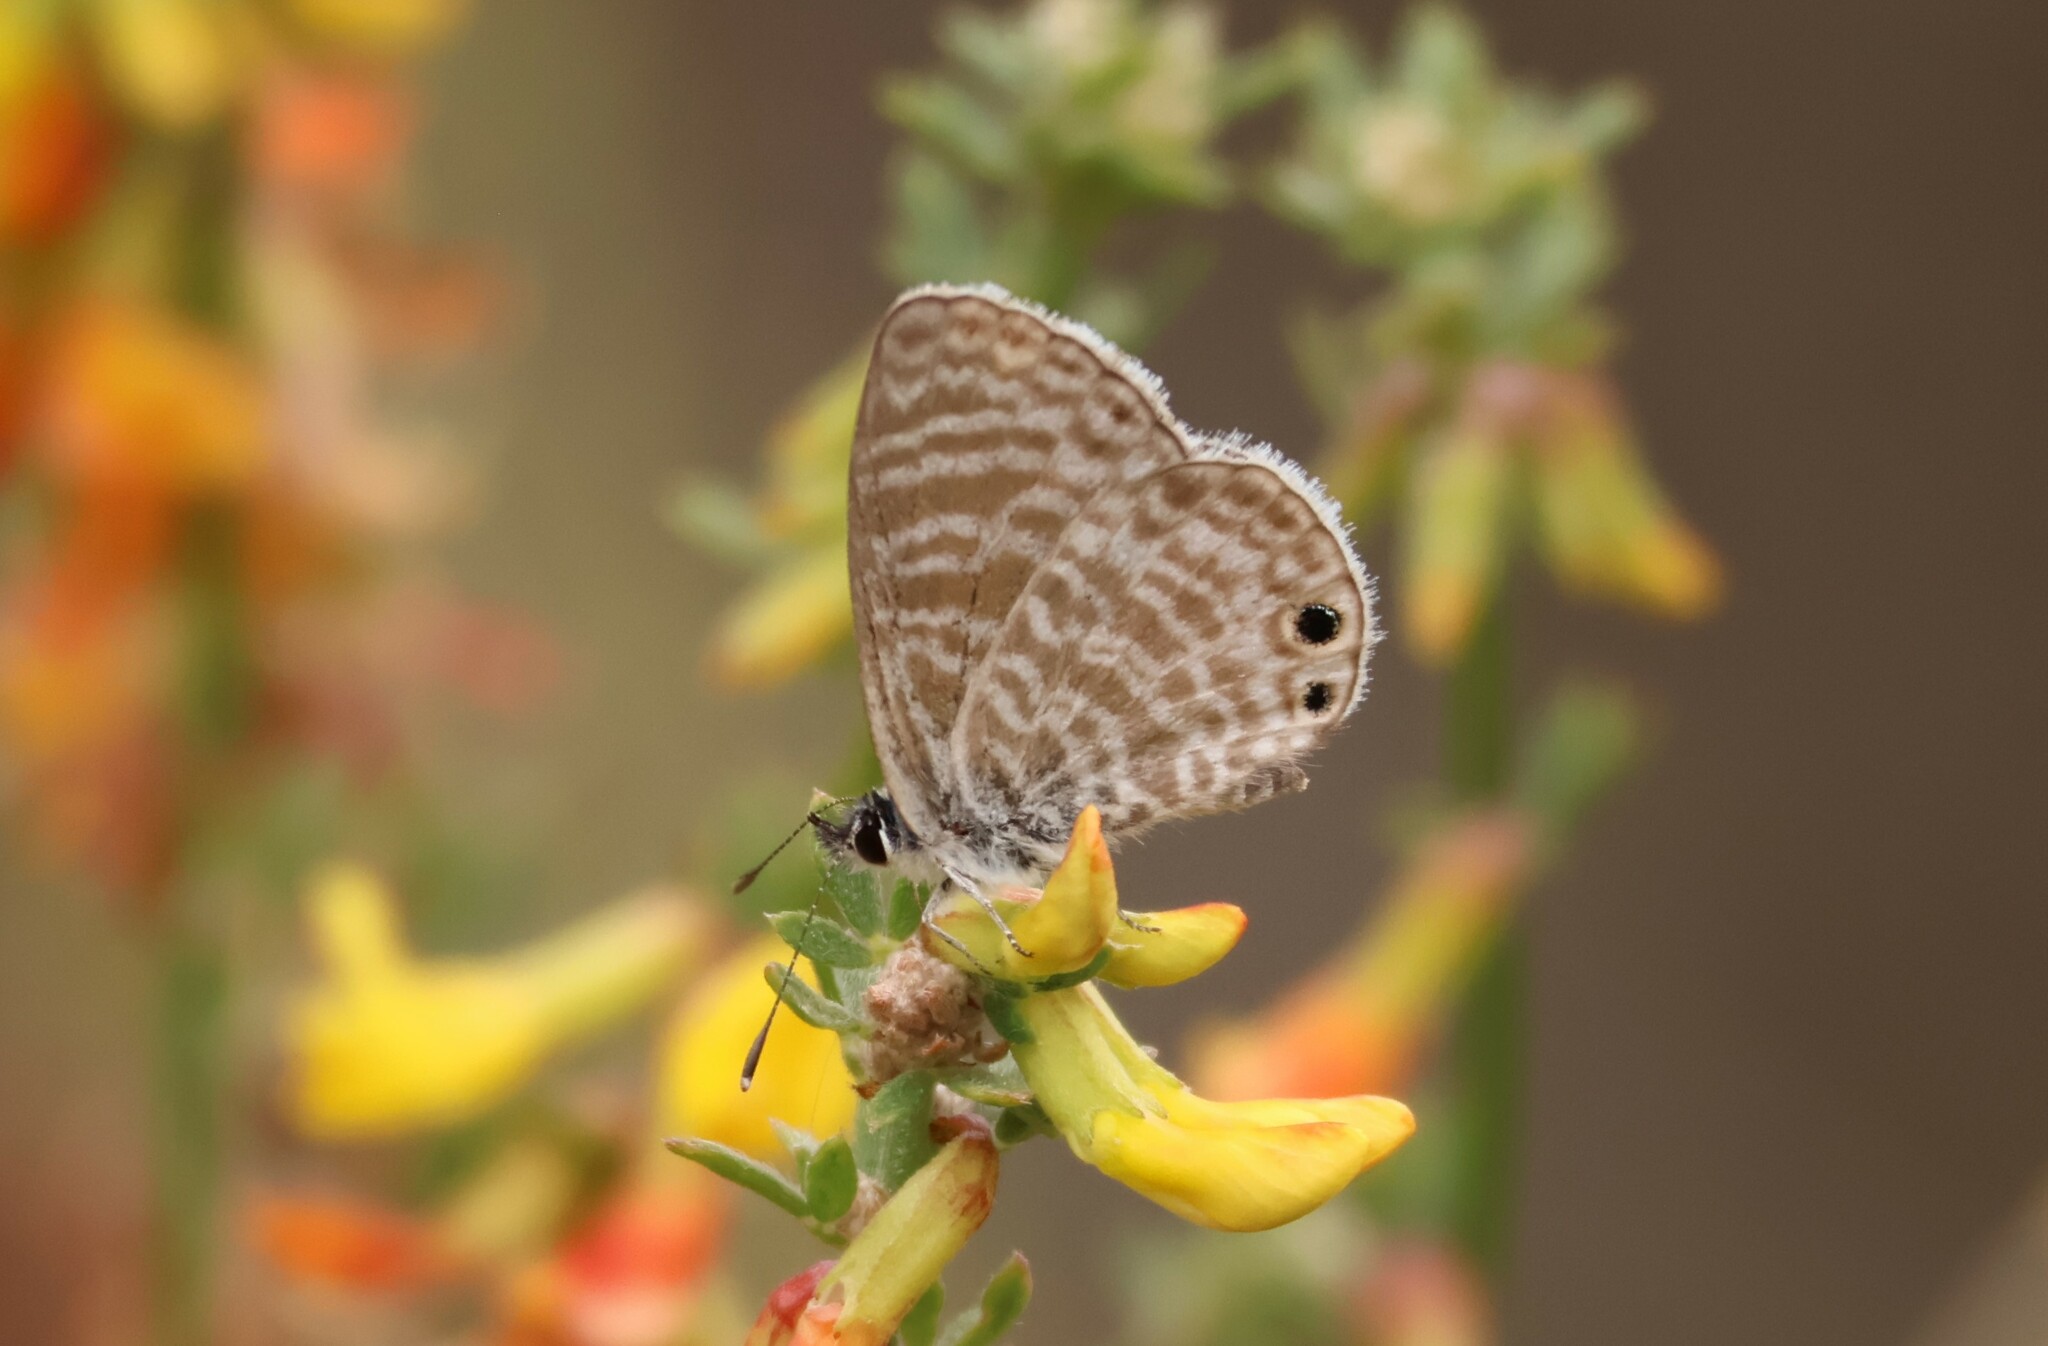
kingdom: Animalia
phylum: Arthropoda
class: Insecta
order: Lepidoptera
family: Lycaenidae
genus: Leptotes
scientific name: Leptotes marina
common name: Marine blue
